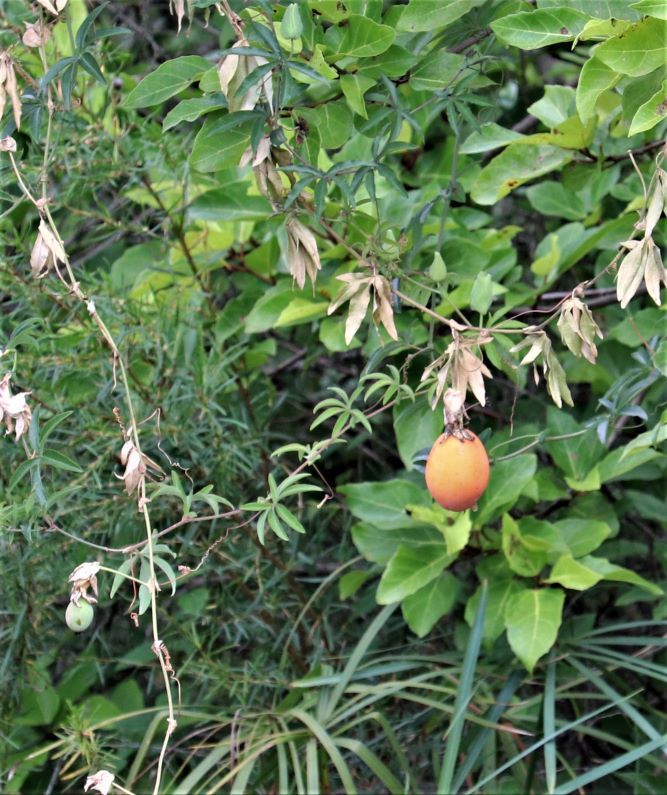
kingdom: Plantae
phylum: Tracheophyta
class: Magnoliopsida
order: Malpighiales
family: Passifloraceae
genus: Passiflora
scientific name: Passiflora caerulea
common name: Blue passionflower
